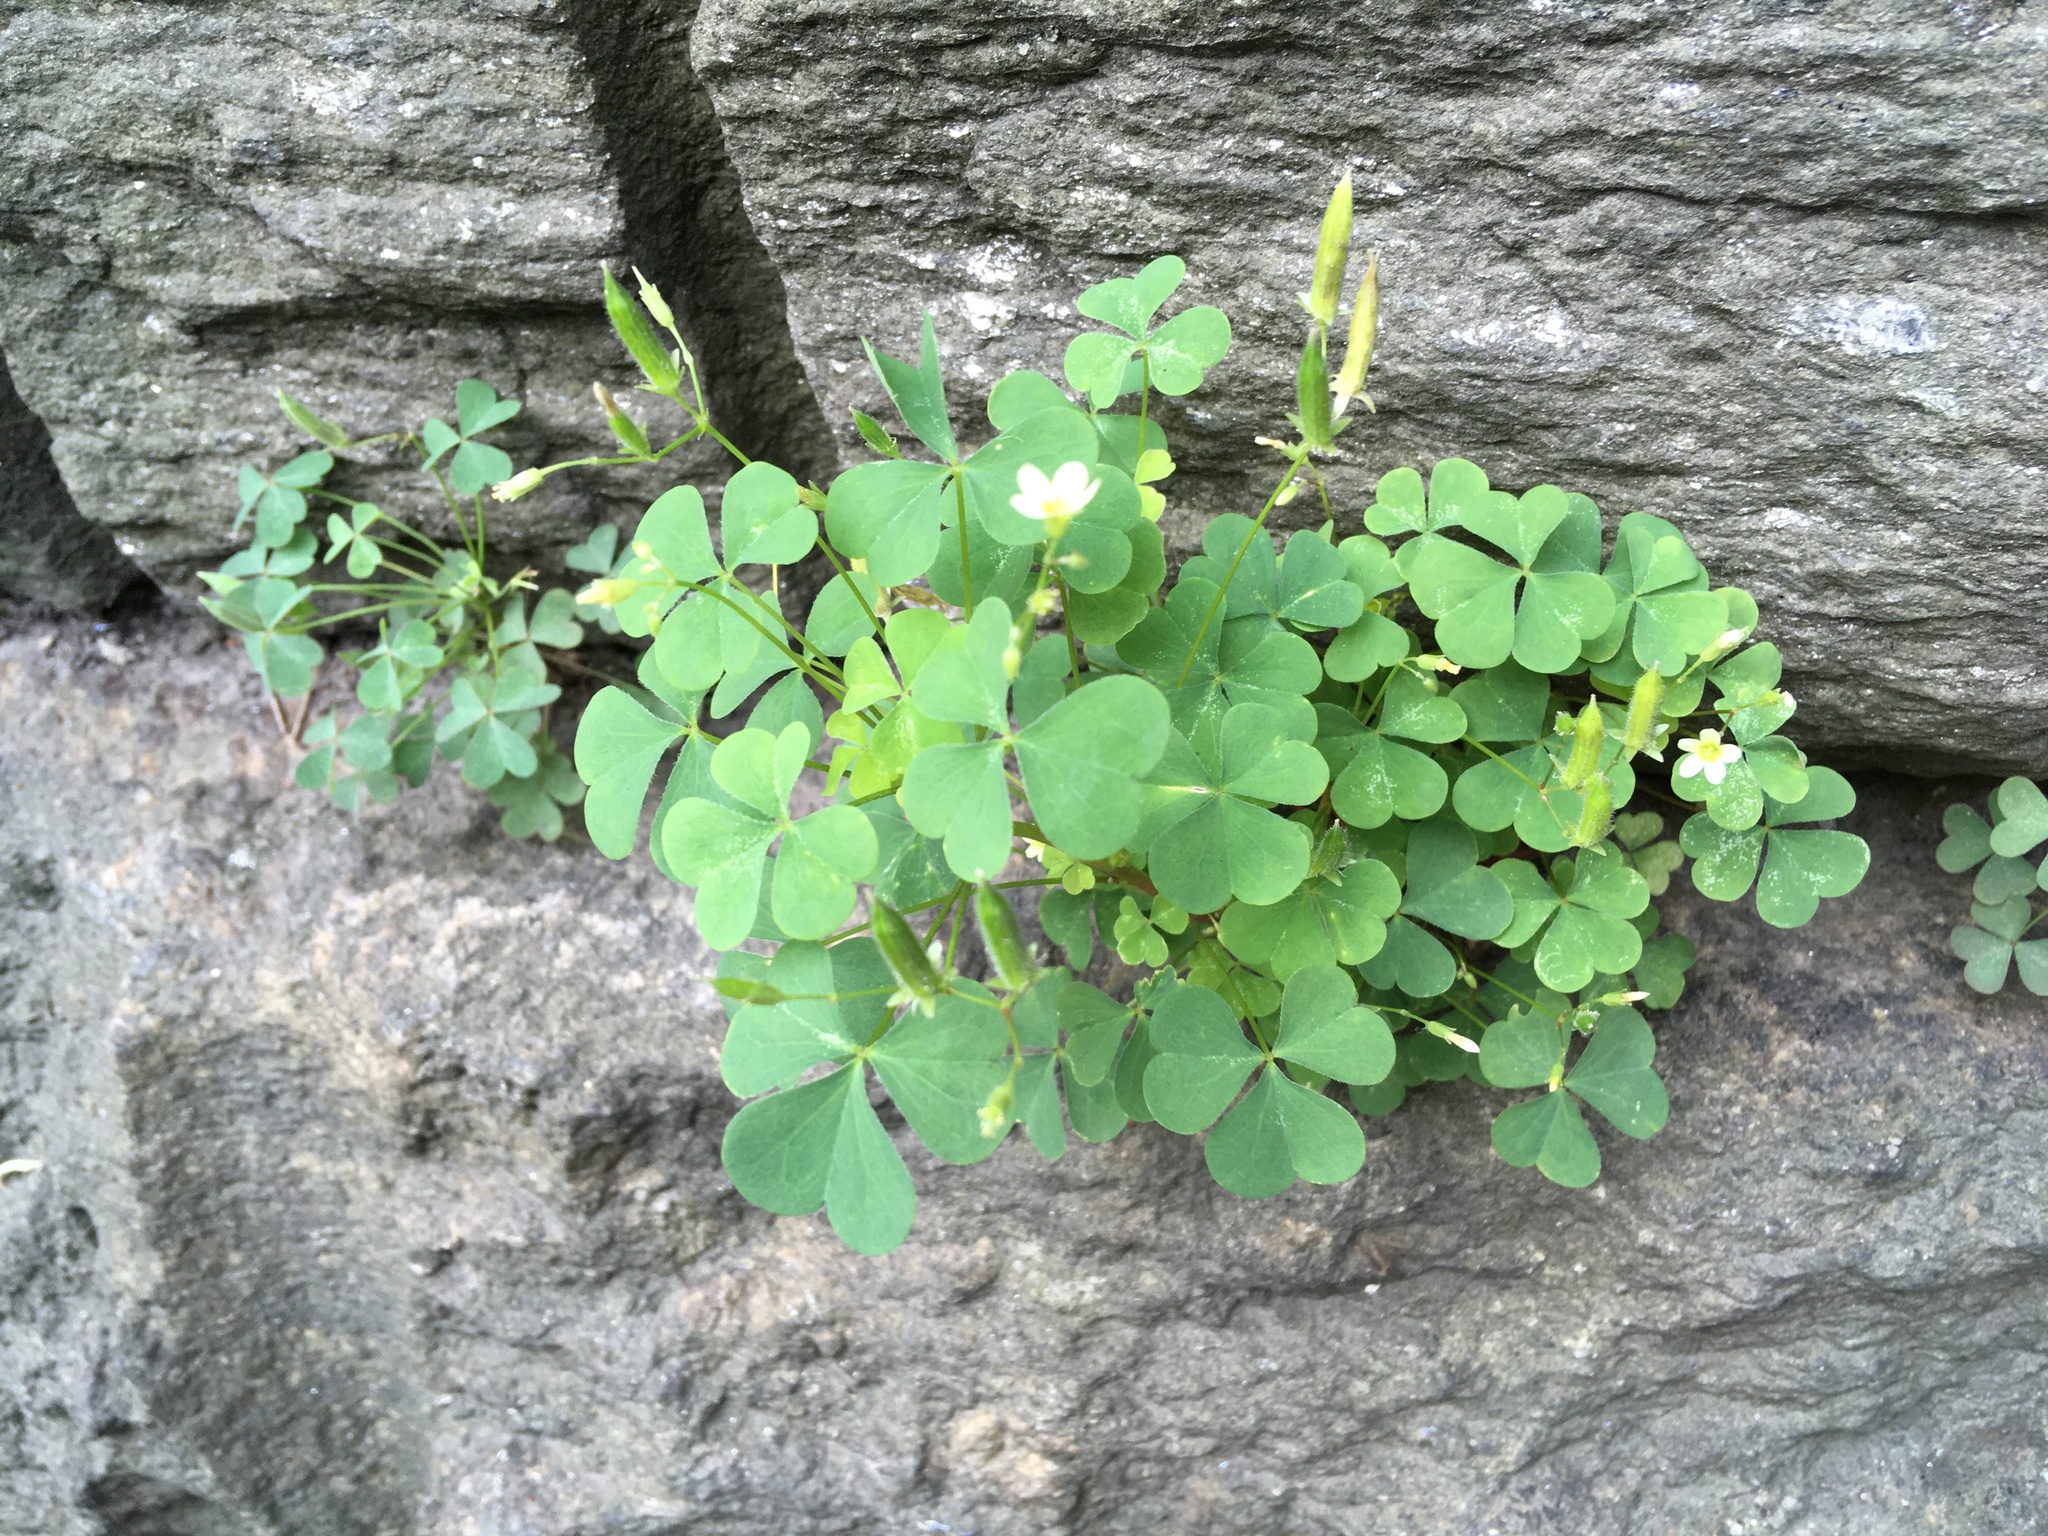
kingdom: Plantae
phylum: Tracheophyta
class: Magnoliopsida
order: Oxalidales
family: Oxalidaceae
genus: Oxalis
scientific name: Oxalis stricta
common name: Upright yellow-sorrel
